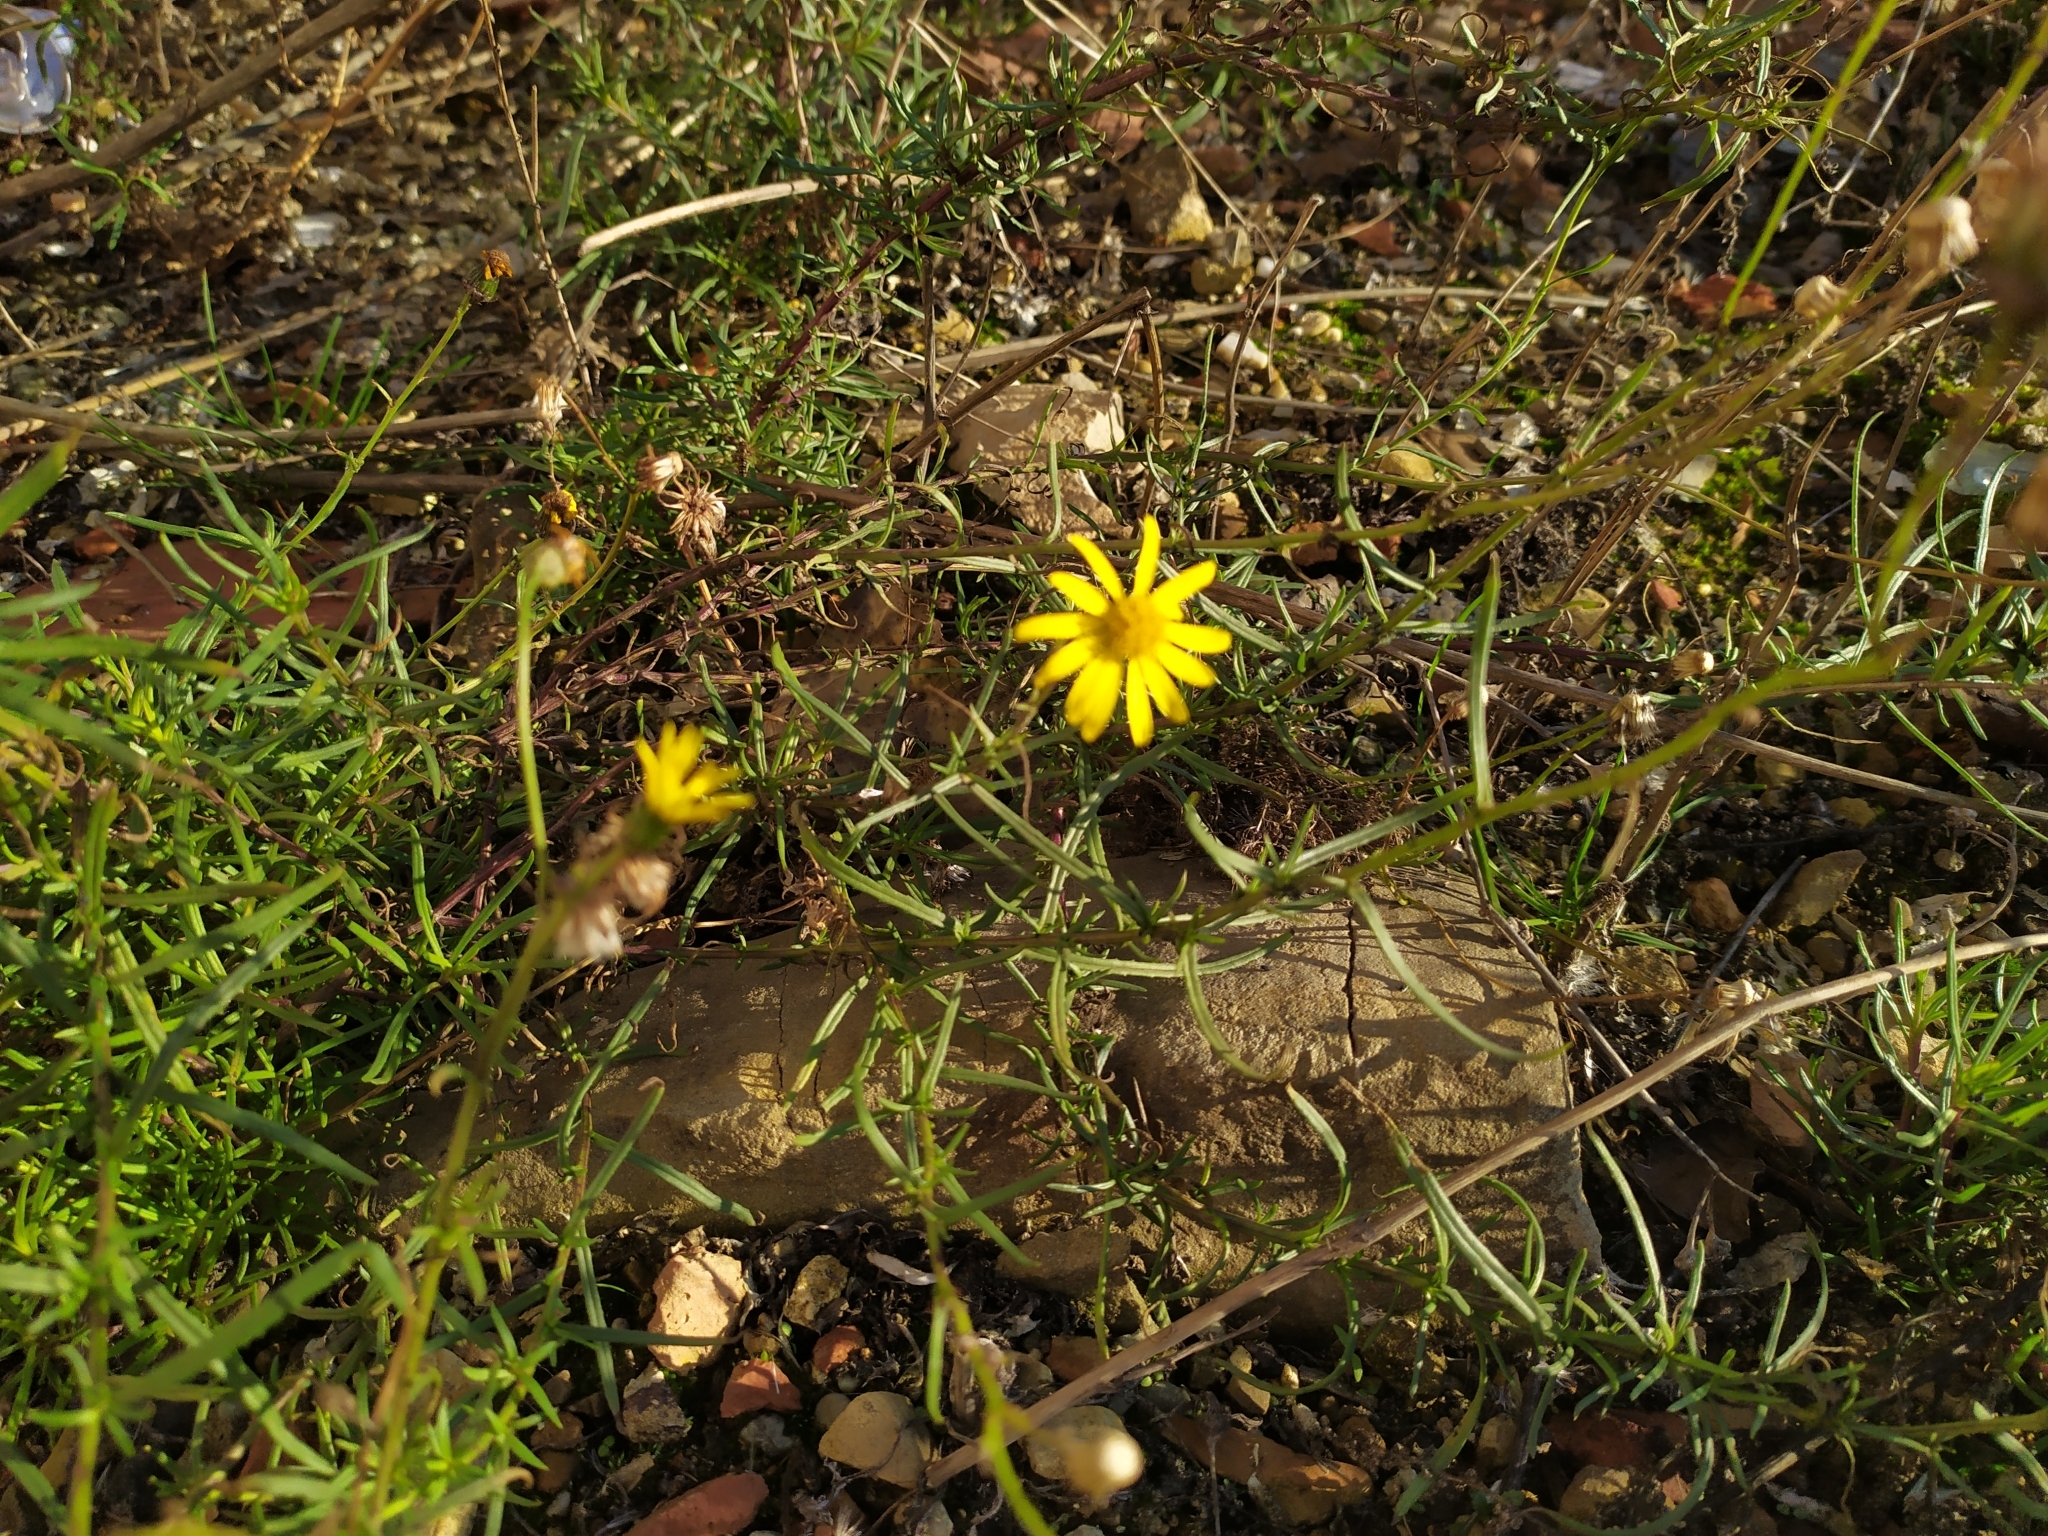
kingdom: Plantae
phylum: Tracheophyta
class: Magnoliopsida
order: Asterales
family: Asteraceae
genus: Senecio
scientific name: Senecio inaequidens
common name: Narrow-leaved ragwort
